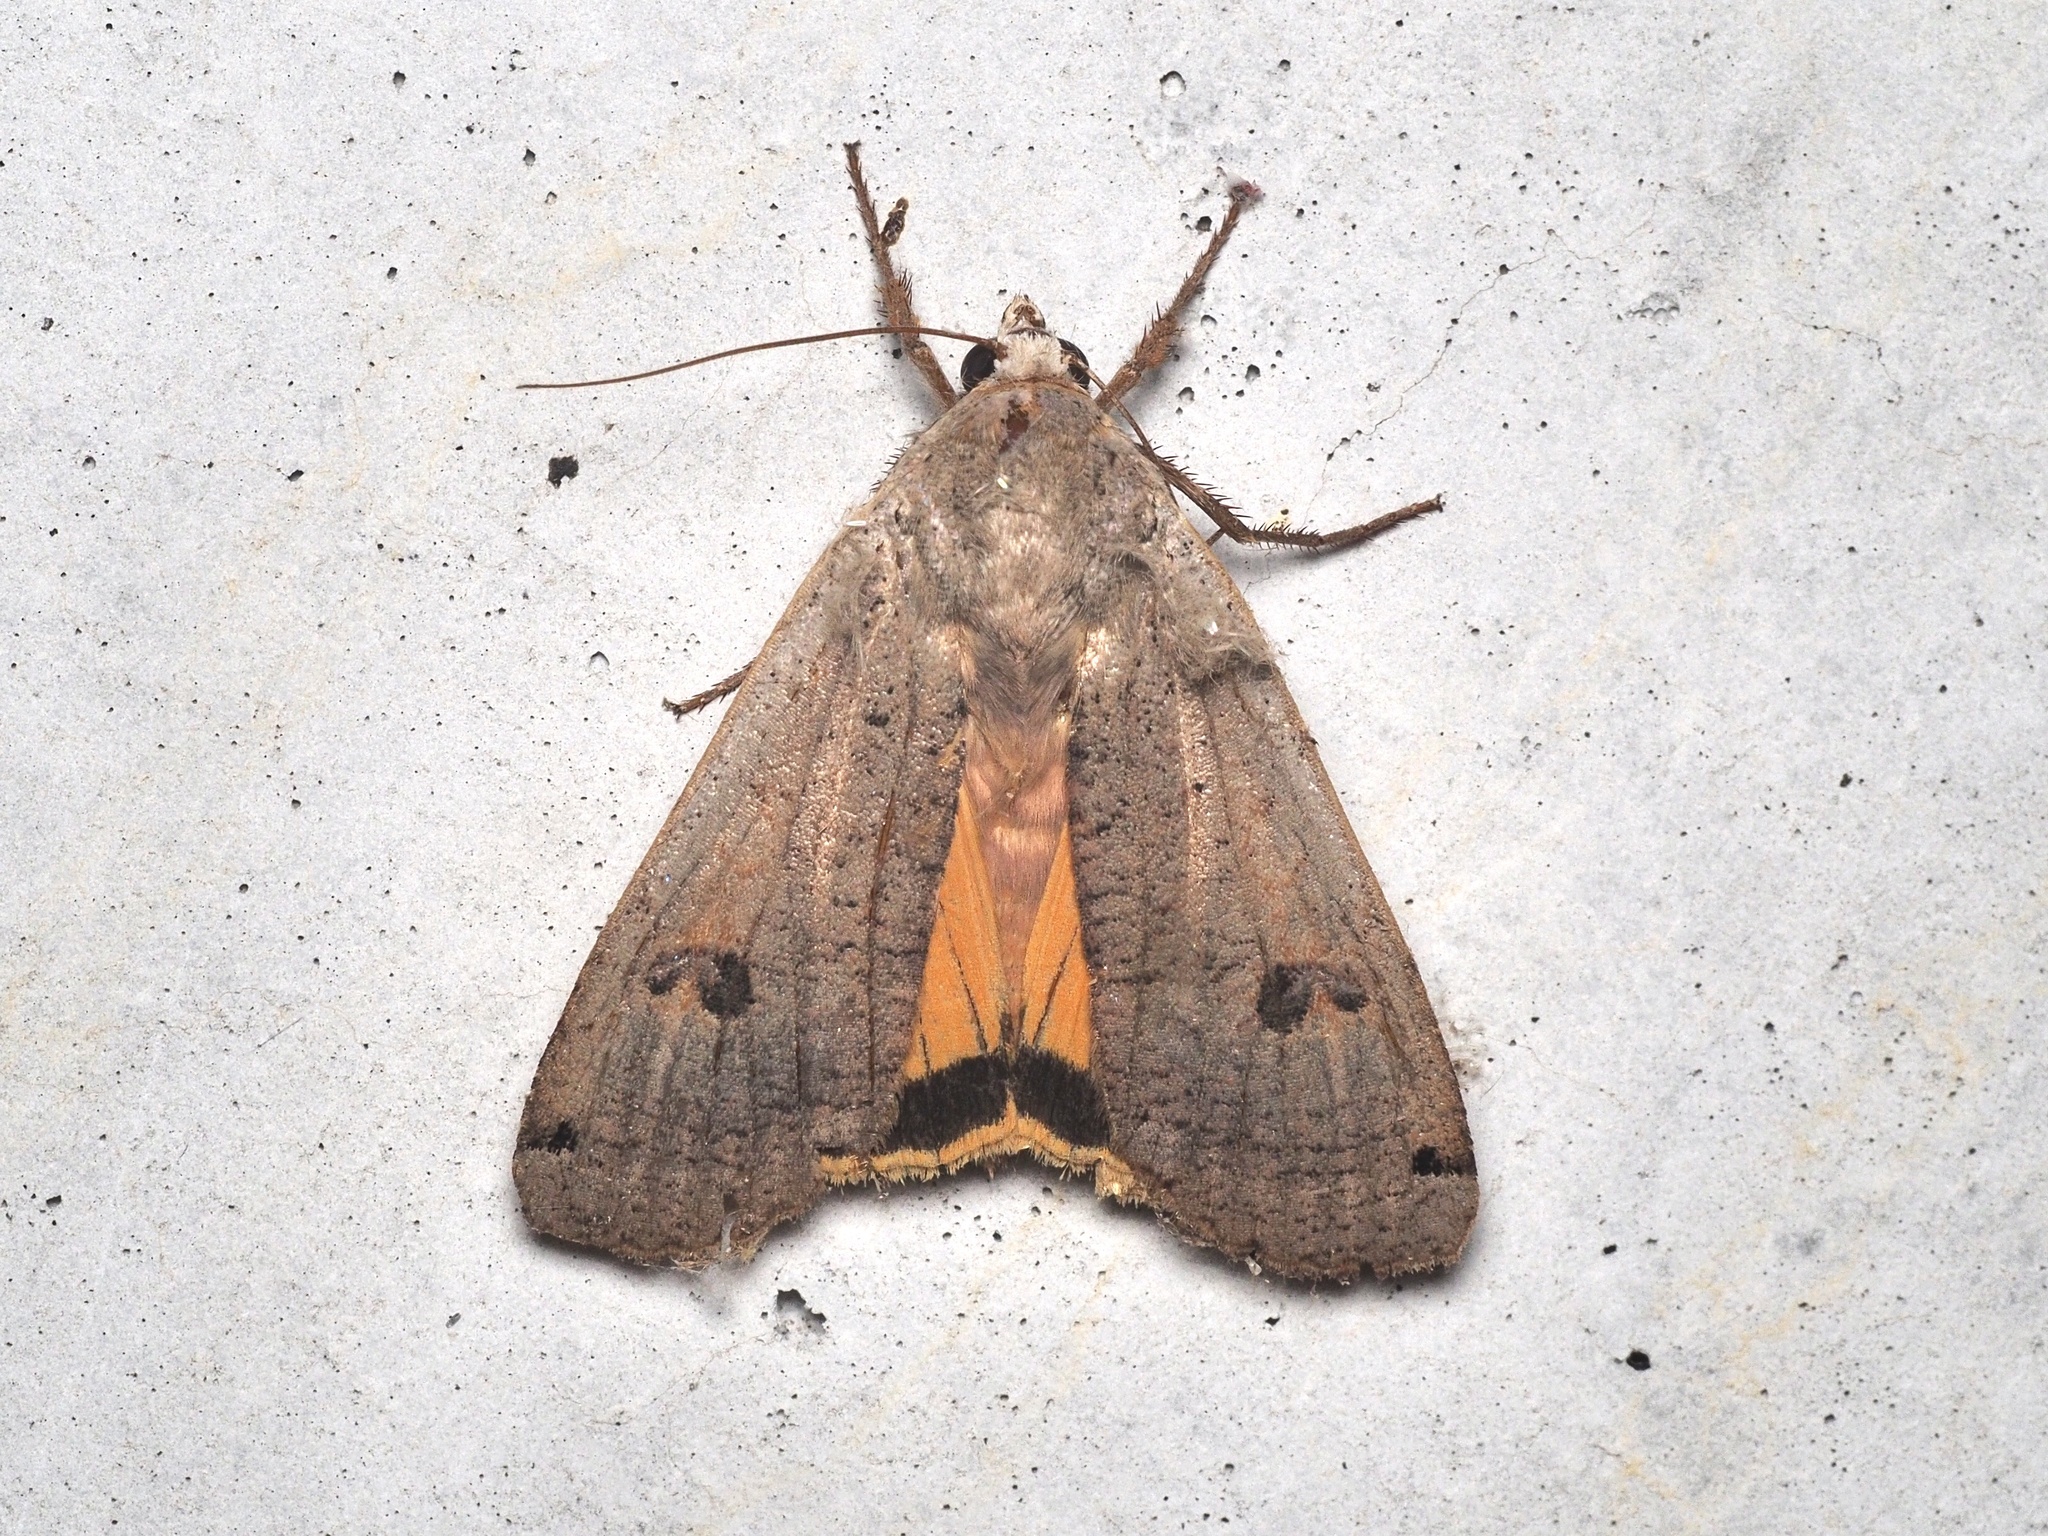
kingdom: Animalia
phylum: Arthropoda
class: Insecta
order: Lepidoptera
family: Noctuidae
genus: Noctua
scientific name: Noctua pronuba
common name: Large yellow underwing
